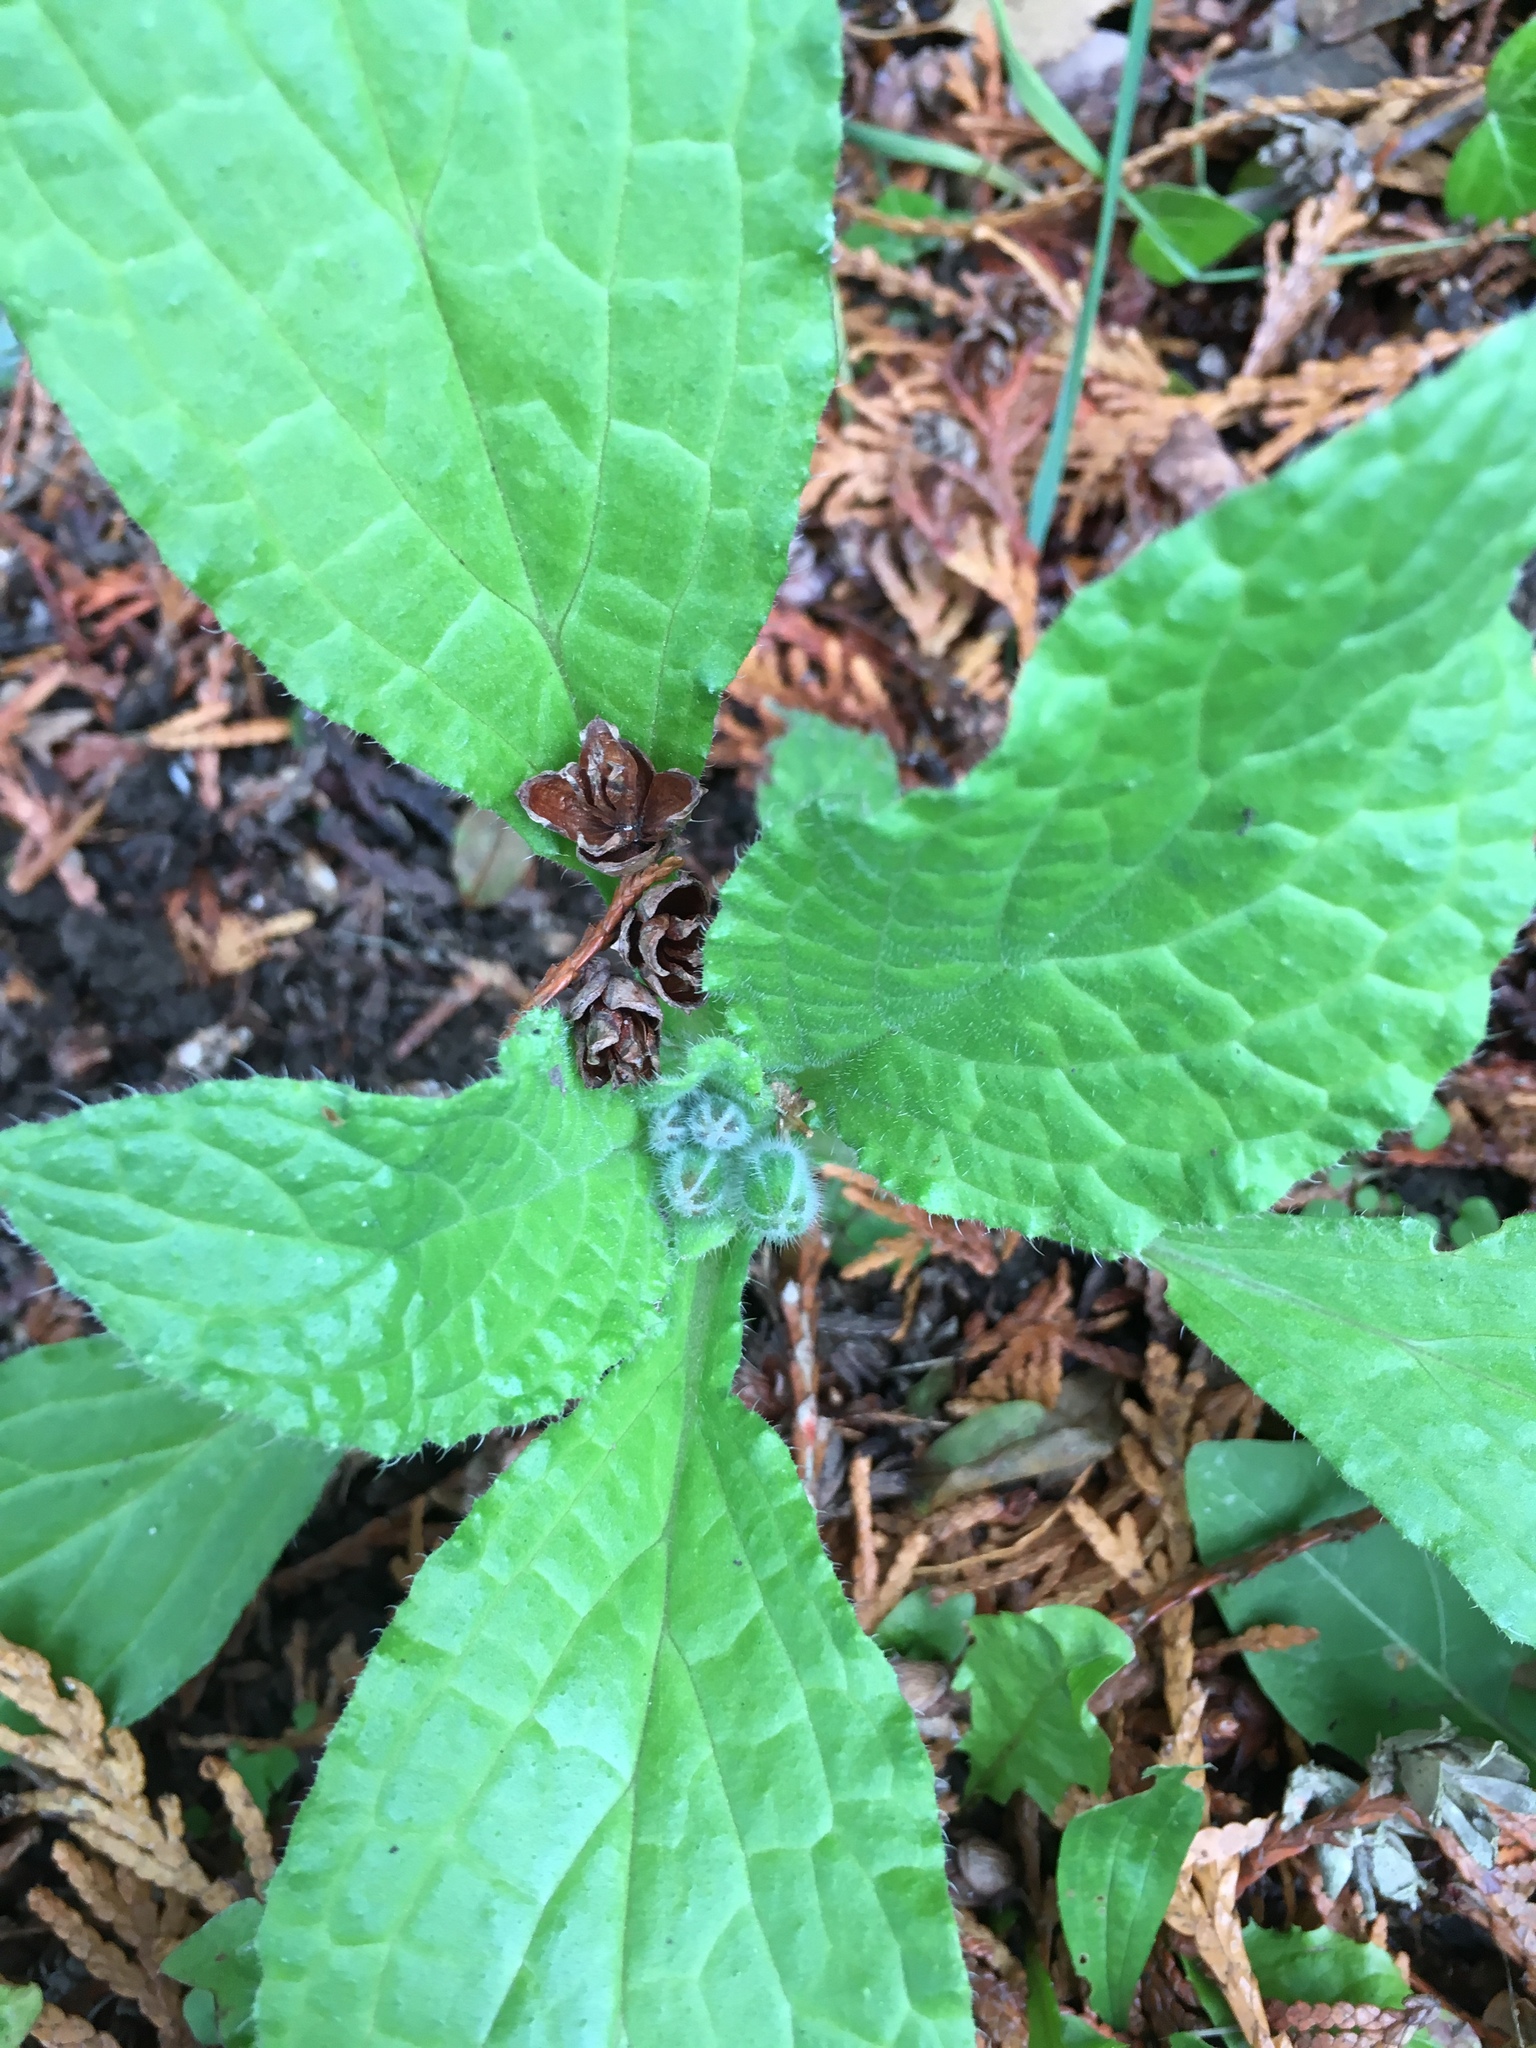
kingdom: Plantae
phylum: Tracheophyta
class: Magnoliopsida
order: Boraginales
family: Boraginaceae
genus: Borago
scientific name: Borago officinalis
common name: Borage
